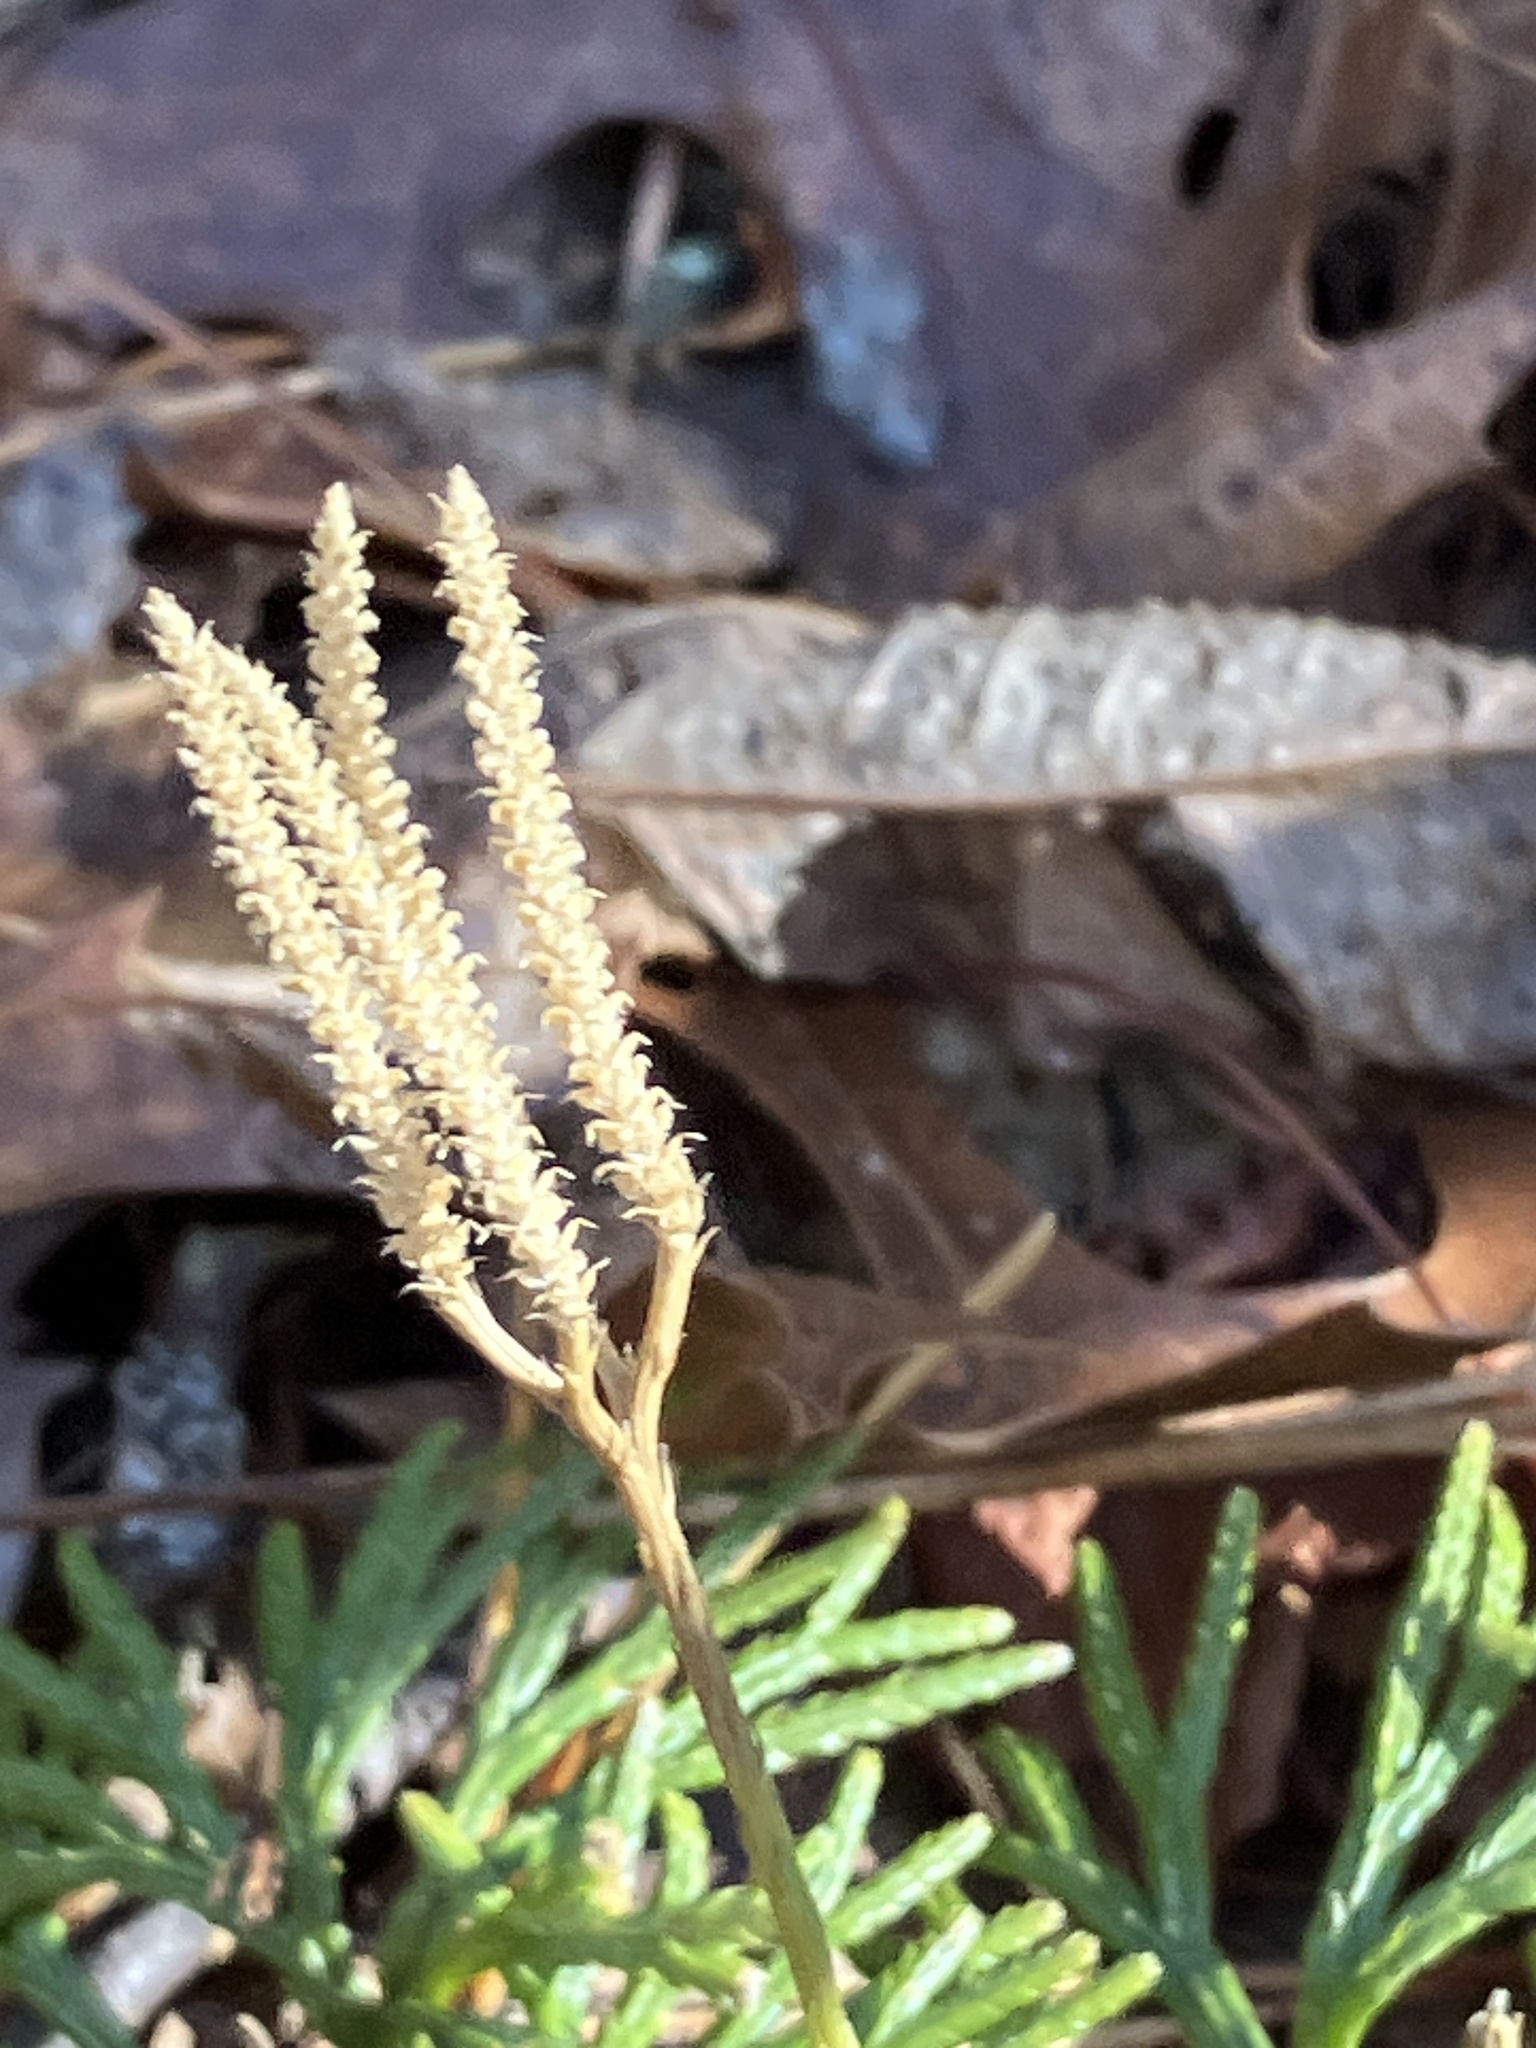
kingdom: Plantae
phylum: Tracheophyta
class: Lycopodiopsida
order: Lycopodiales
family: Lycopodiaceae
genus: Diphasiastrum
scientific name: Diphasiastrum digitatum
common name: Southern running-pine
